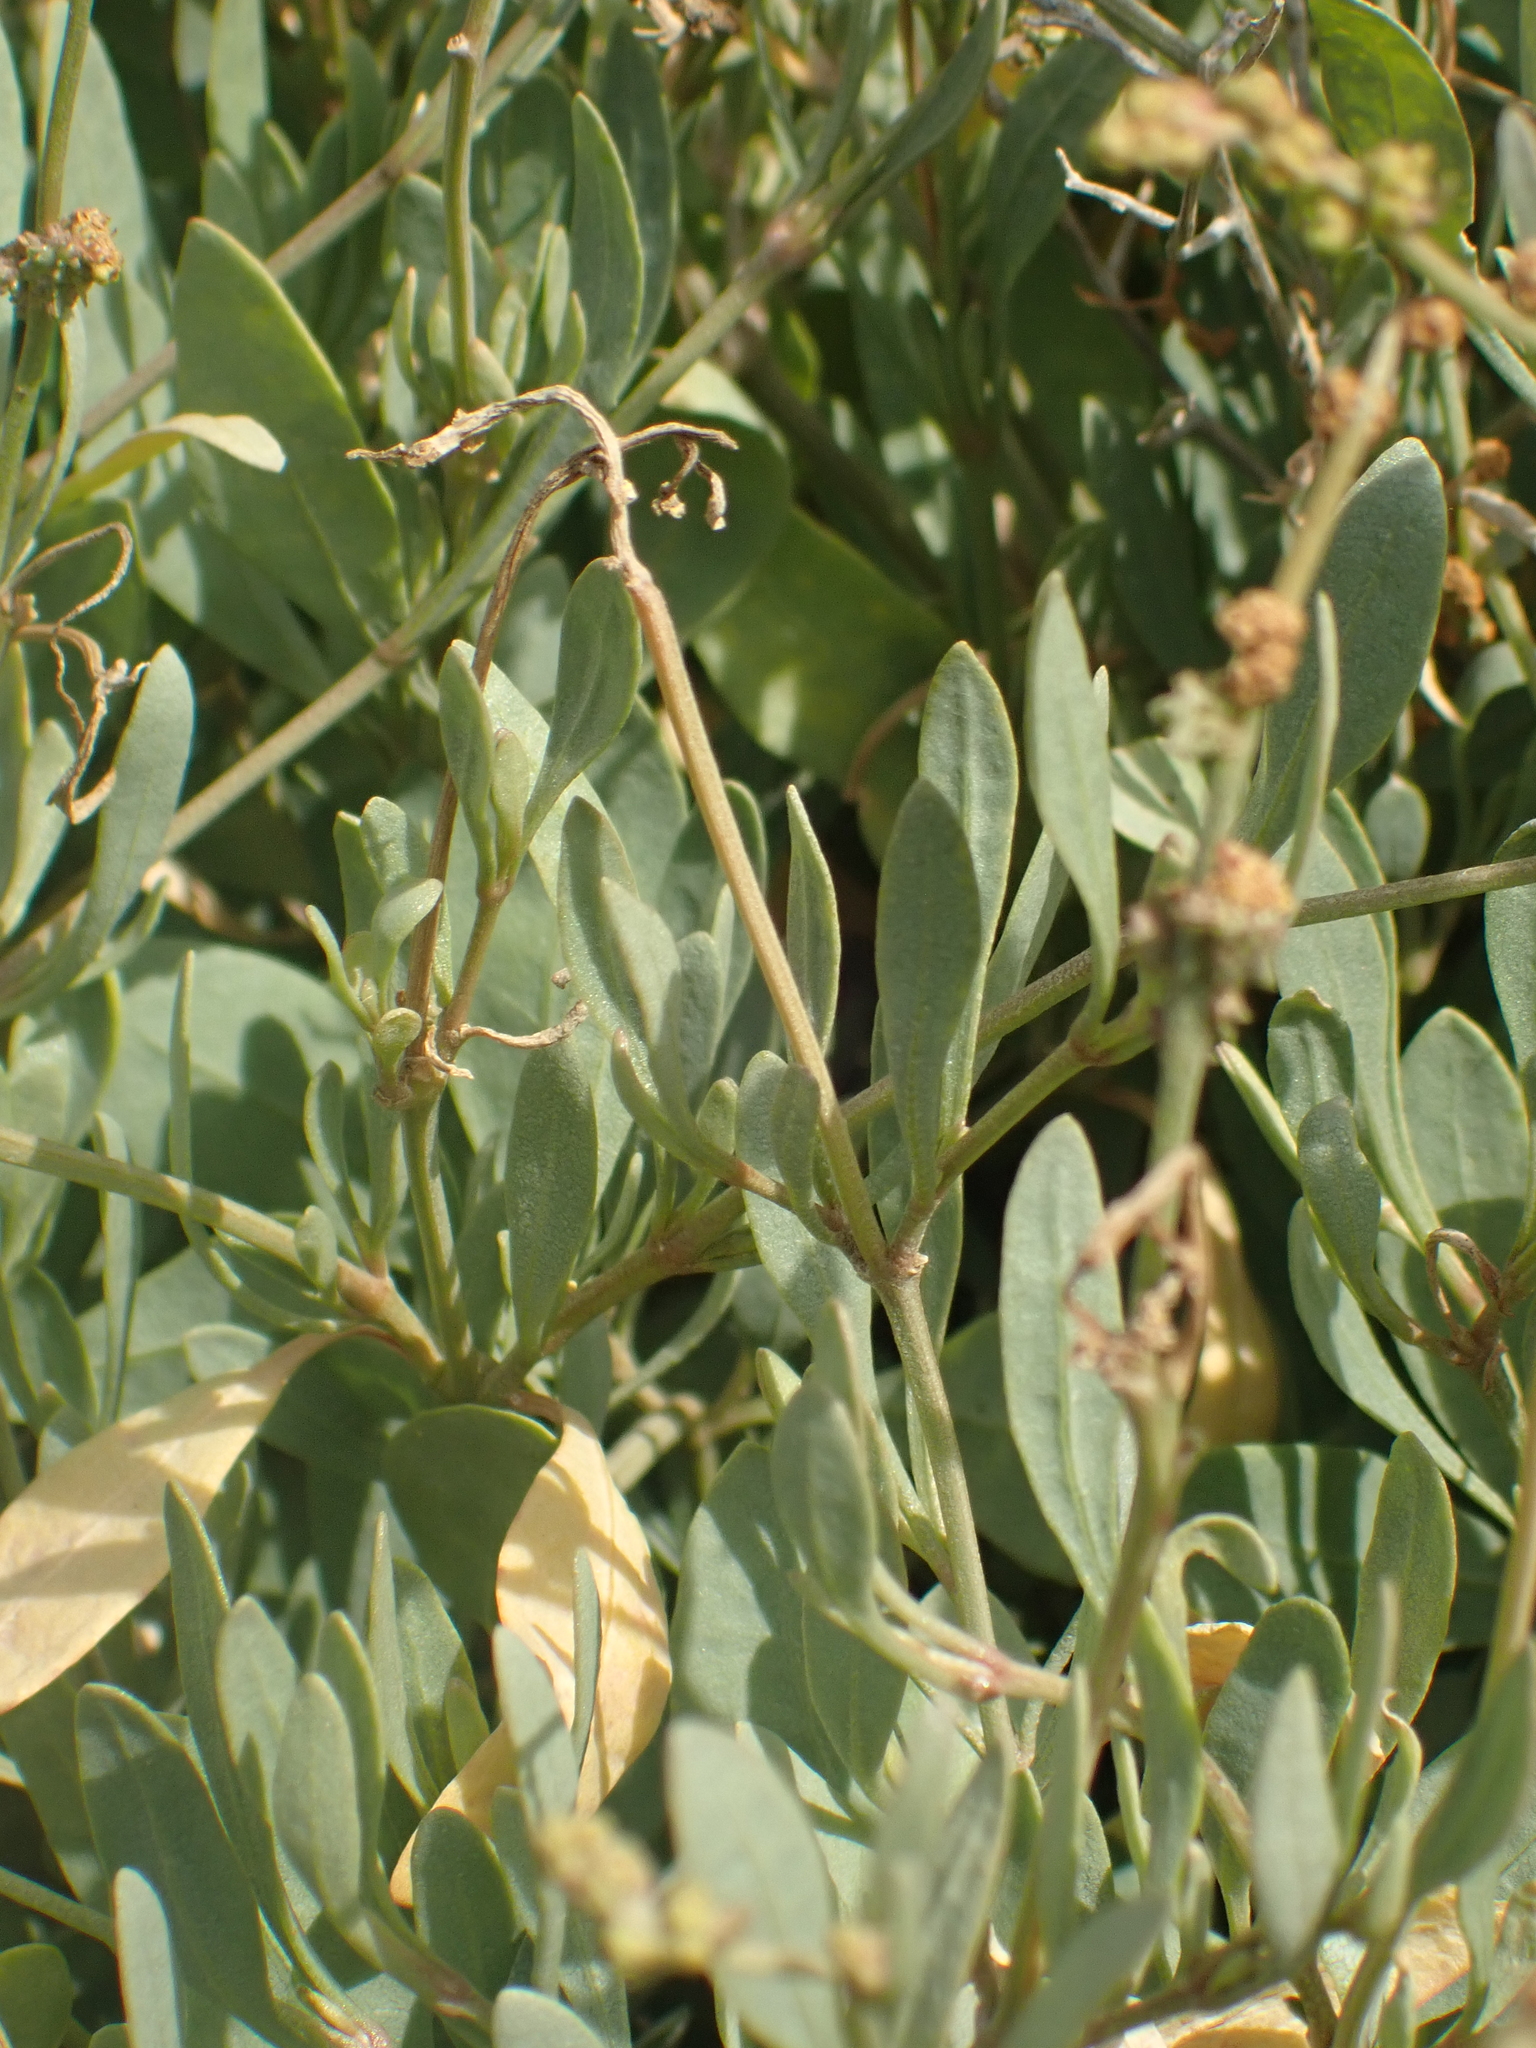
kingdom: Plantae
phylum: Tracheophyta
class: Magnoliopsida
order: Caryophyllales
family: Amaranthaceae
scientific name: Amaranthaceae
